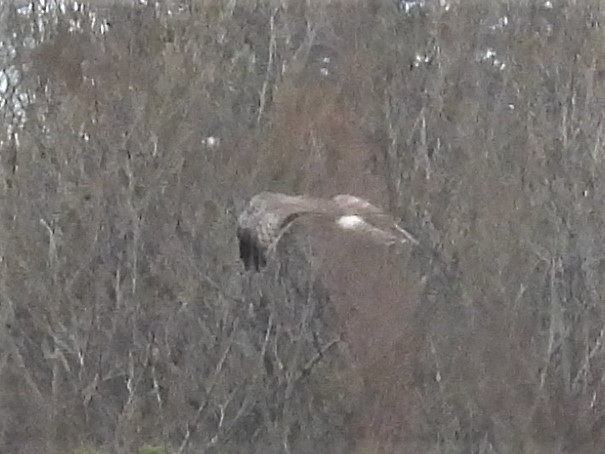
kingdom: Animalia
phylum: Chordata
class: Aves
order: Accipitriformes
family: Accipitridae
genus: Circus
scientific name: Circus cyaneus
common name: Hen harrier
